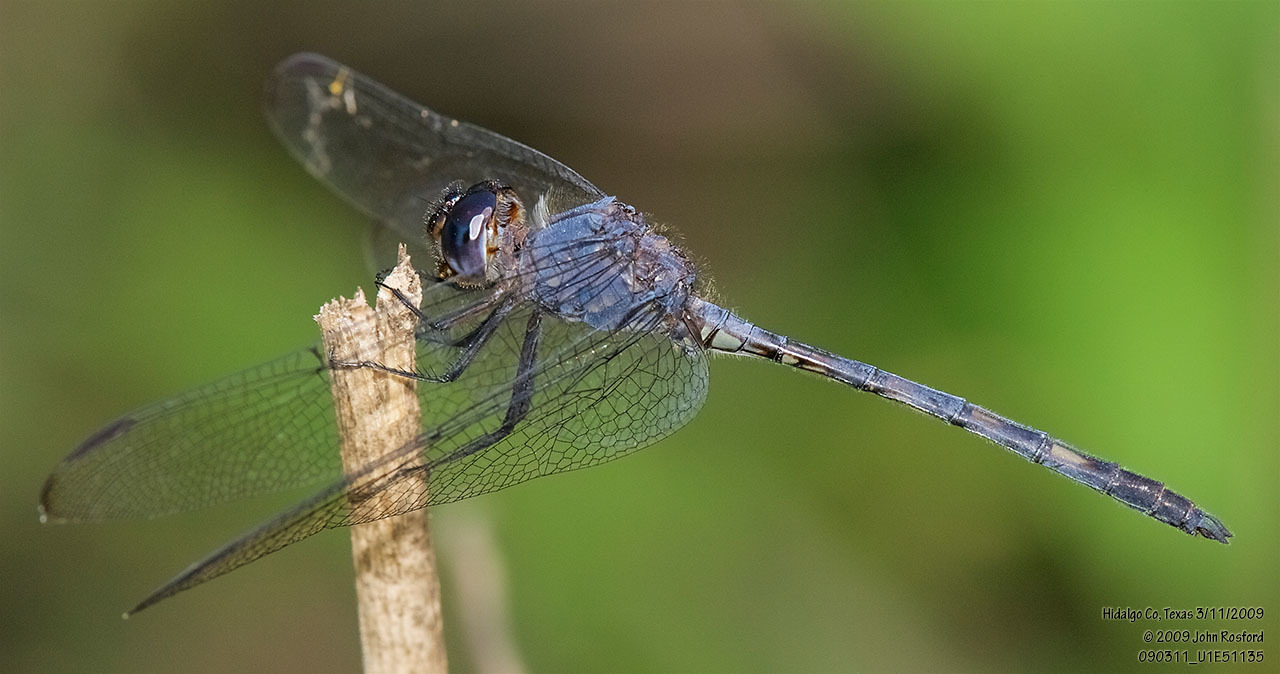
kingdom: Animalia
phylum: Arthropoda
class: Insecta
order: Odonata
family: Libellulidae
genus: Dythemis
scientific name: Dythemis nigrescens
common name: Black setwing
